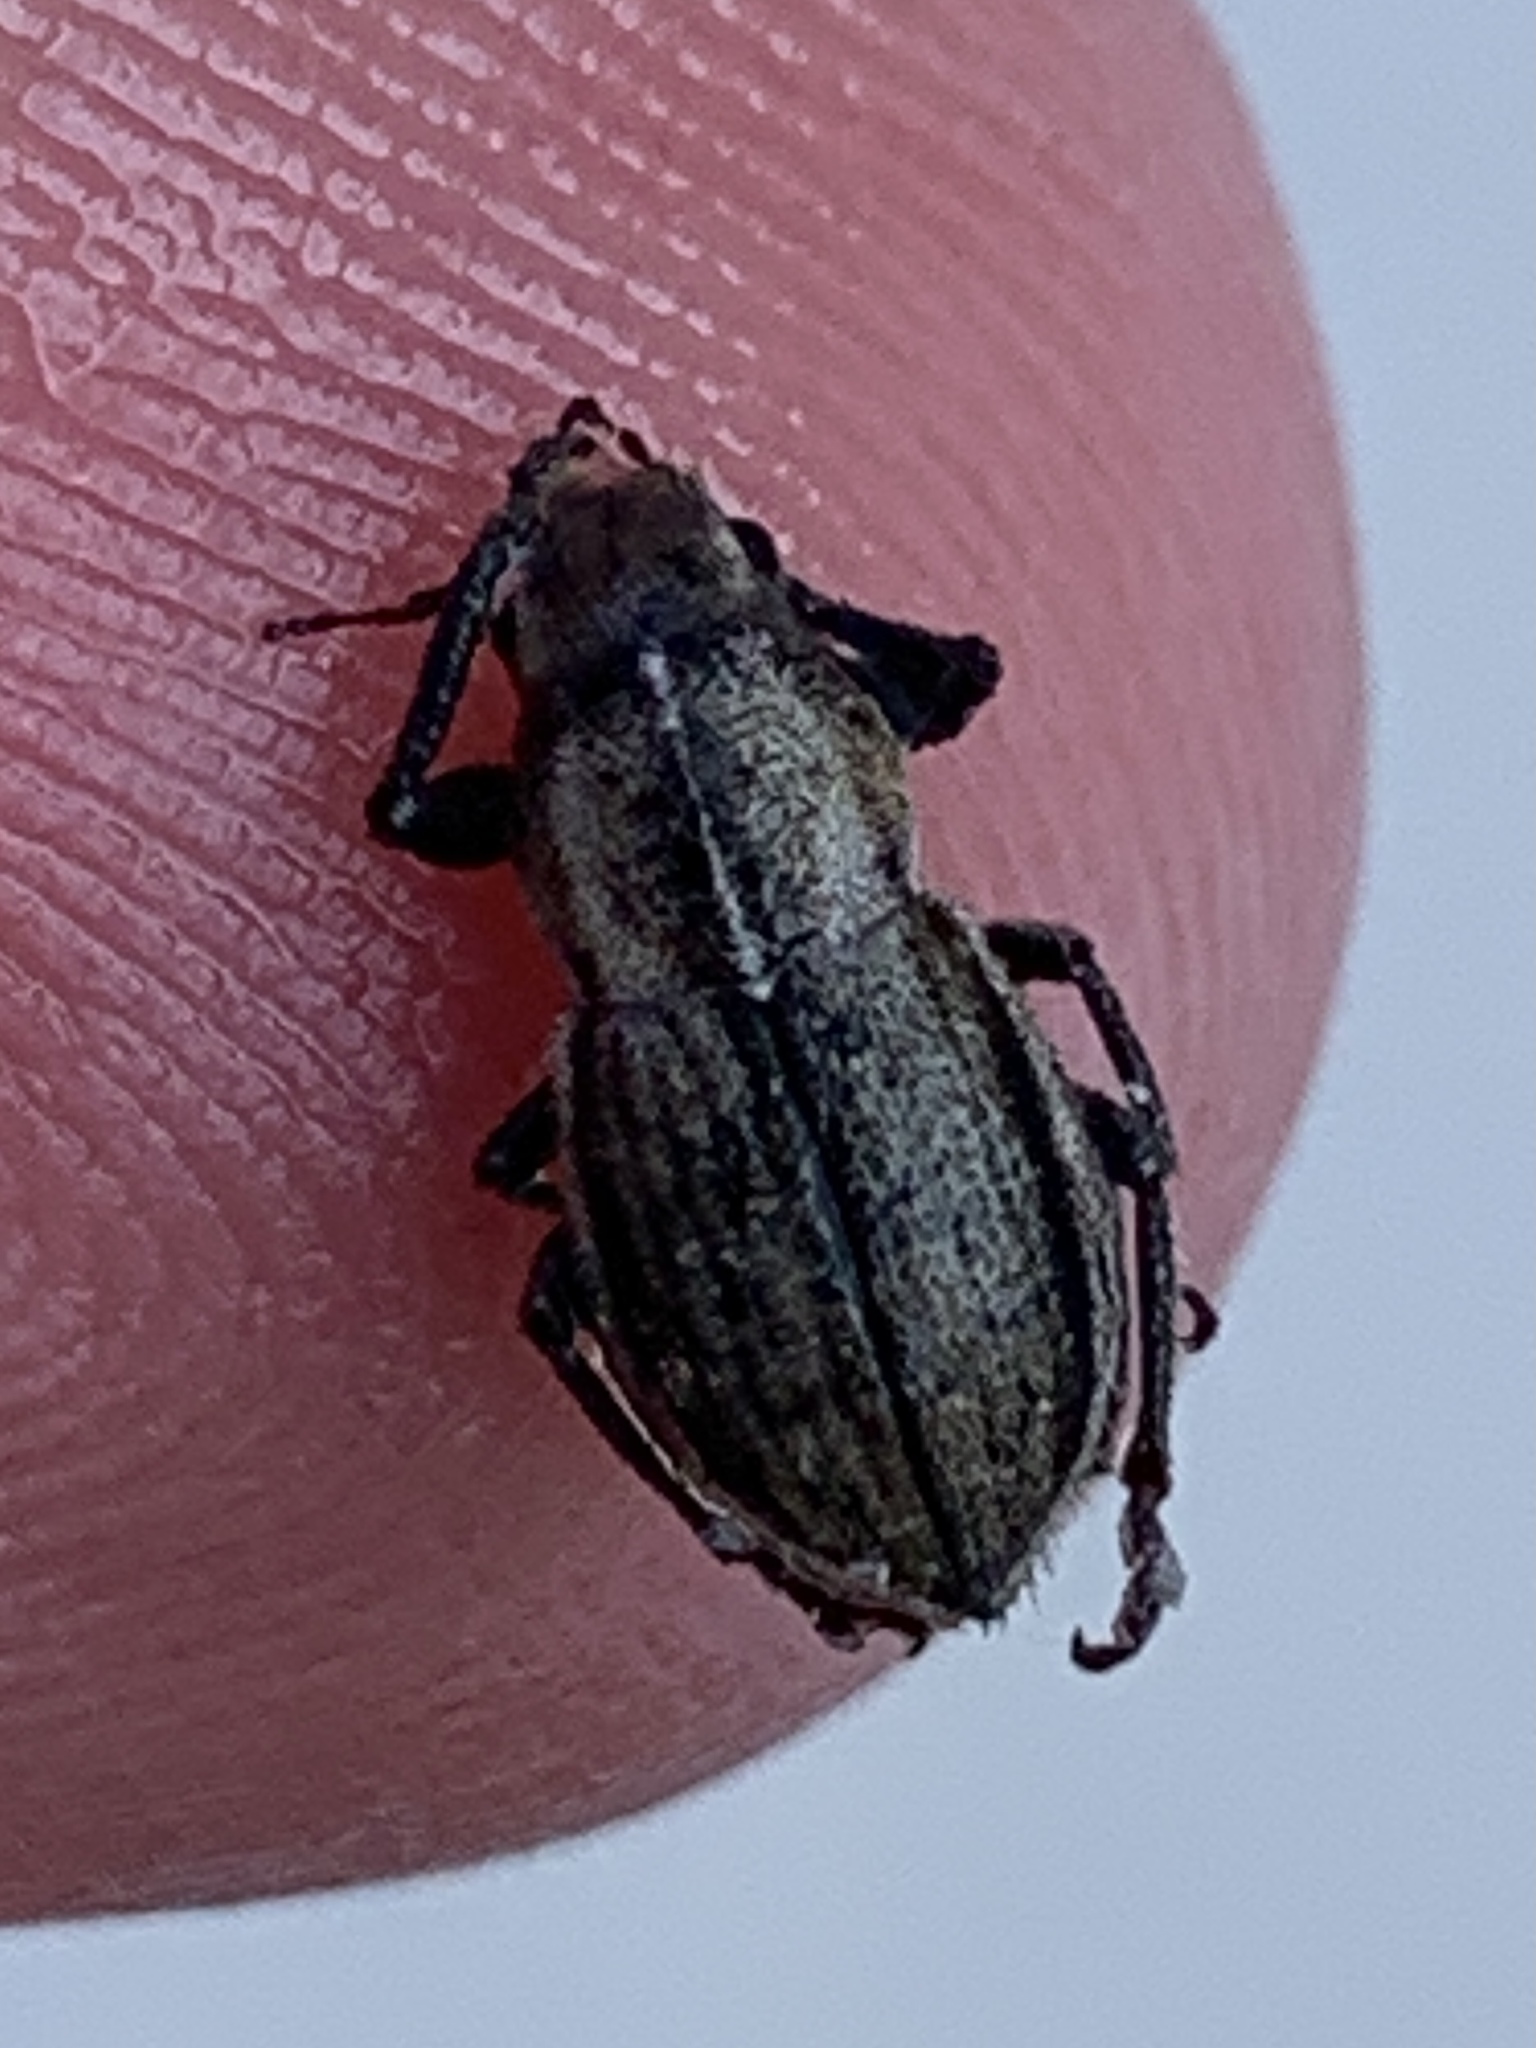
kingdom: Animalia
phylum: Arthropoda
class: Insecta
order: Coleoptera
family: Curculionidae
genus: Naupactus
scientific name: Naupactus peregrinus
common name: Whitefringed beetle
